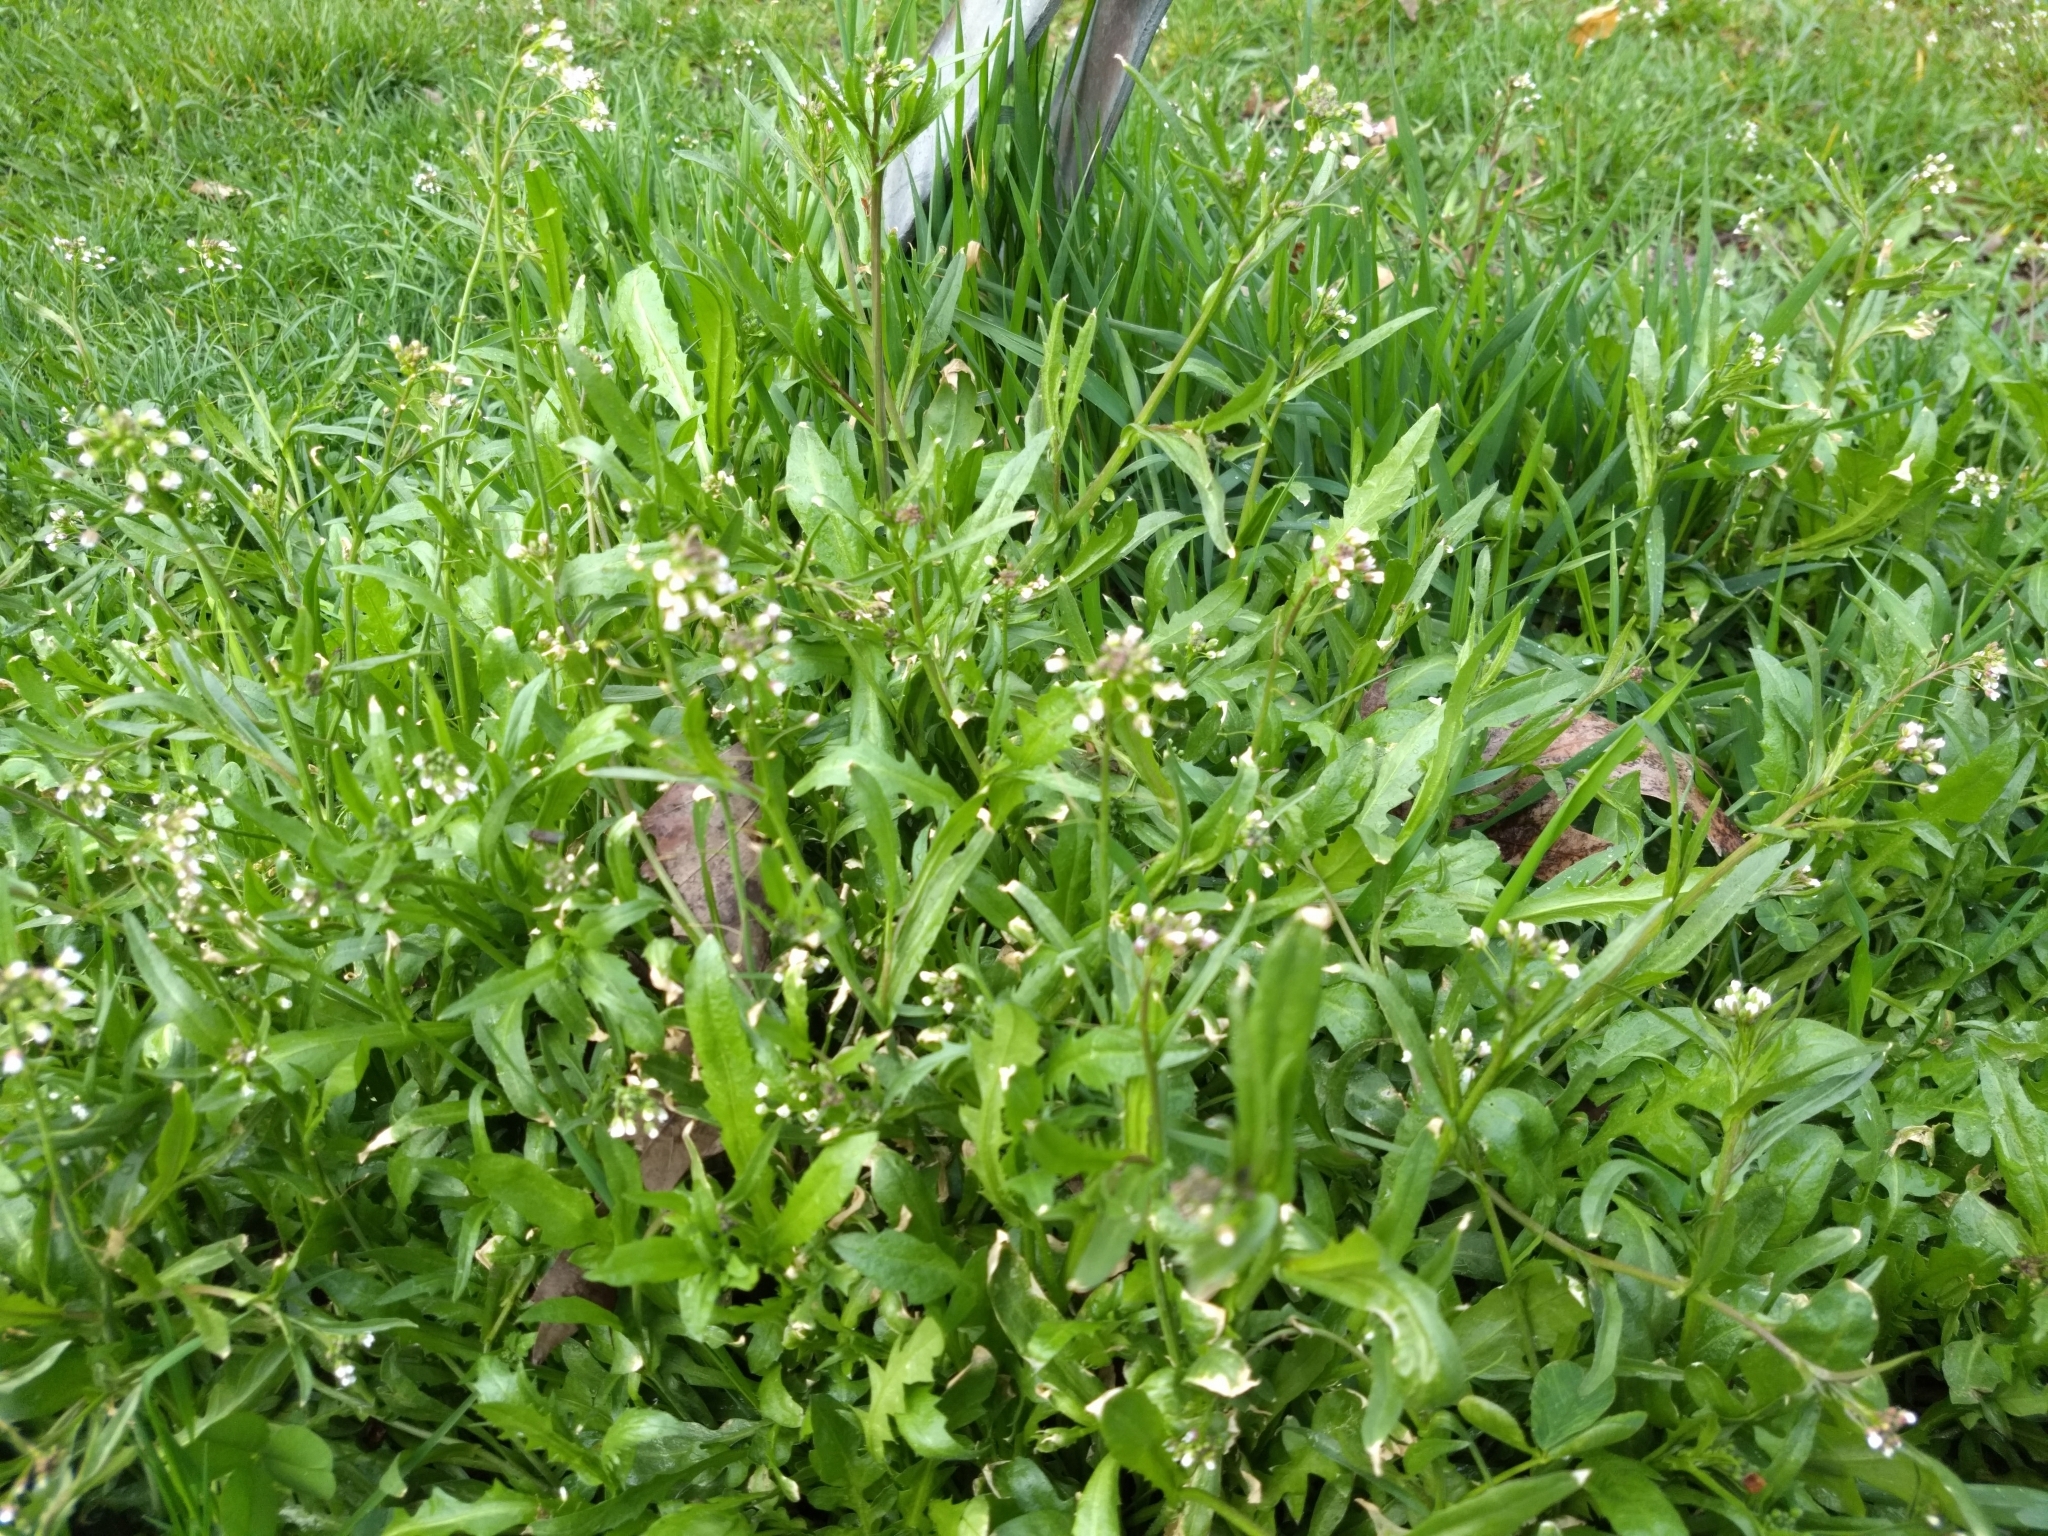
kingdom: Plantae
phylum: Tracheophyta
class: Magnoliopsida
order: Brassicales
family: Brassicaceae
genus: Capsella
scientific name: Capsella bursa-pastoris
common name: Shepherd's purse
